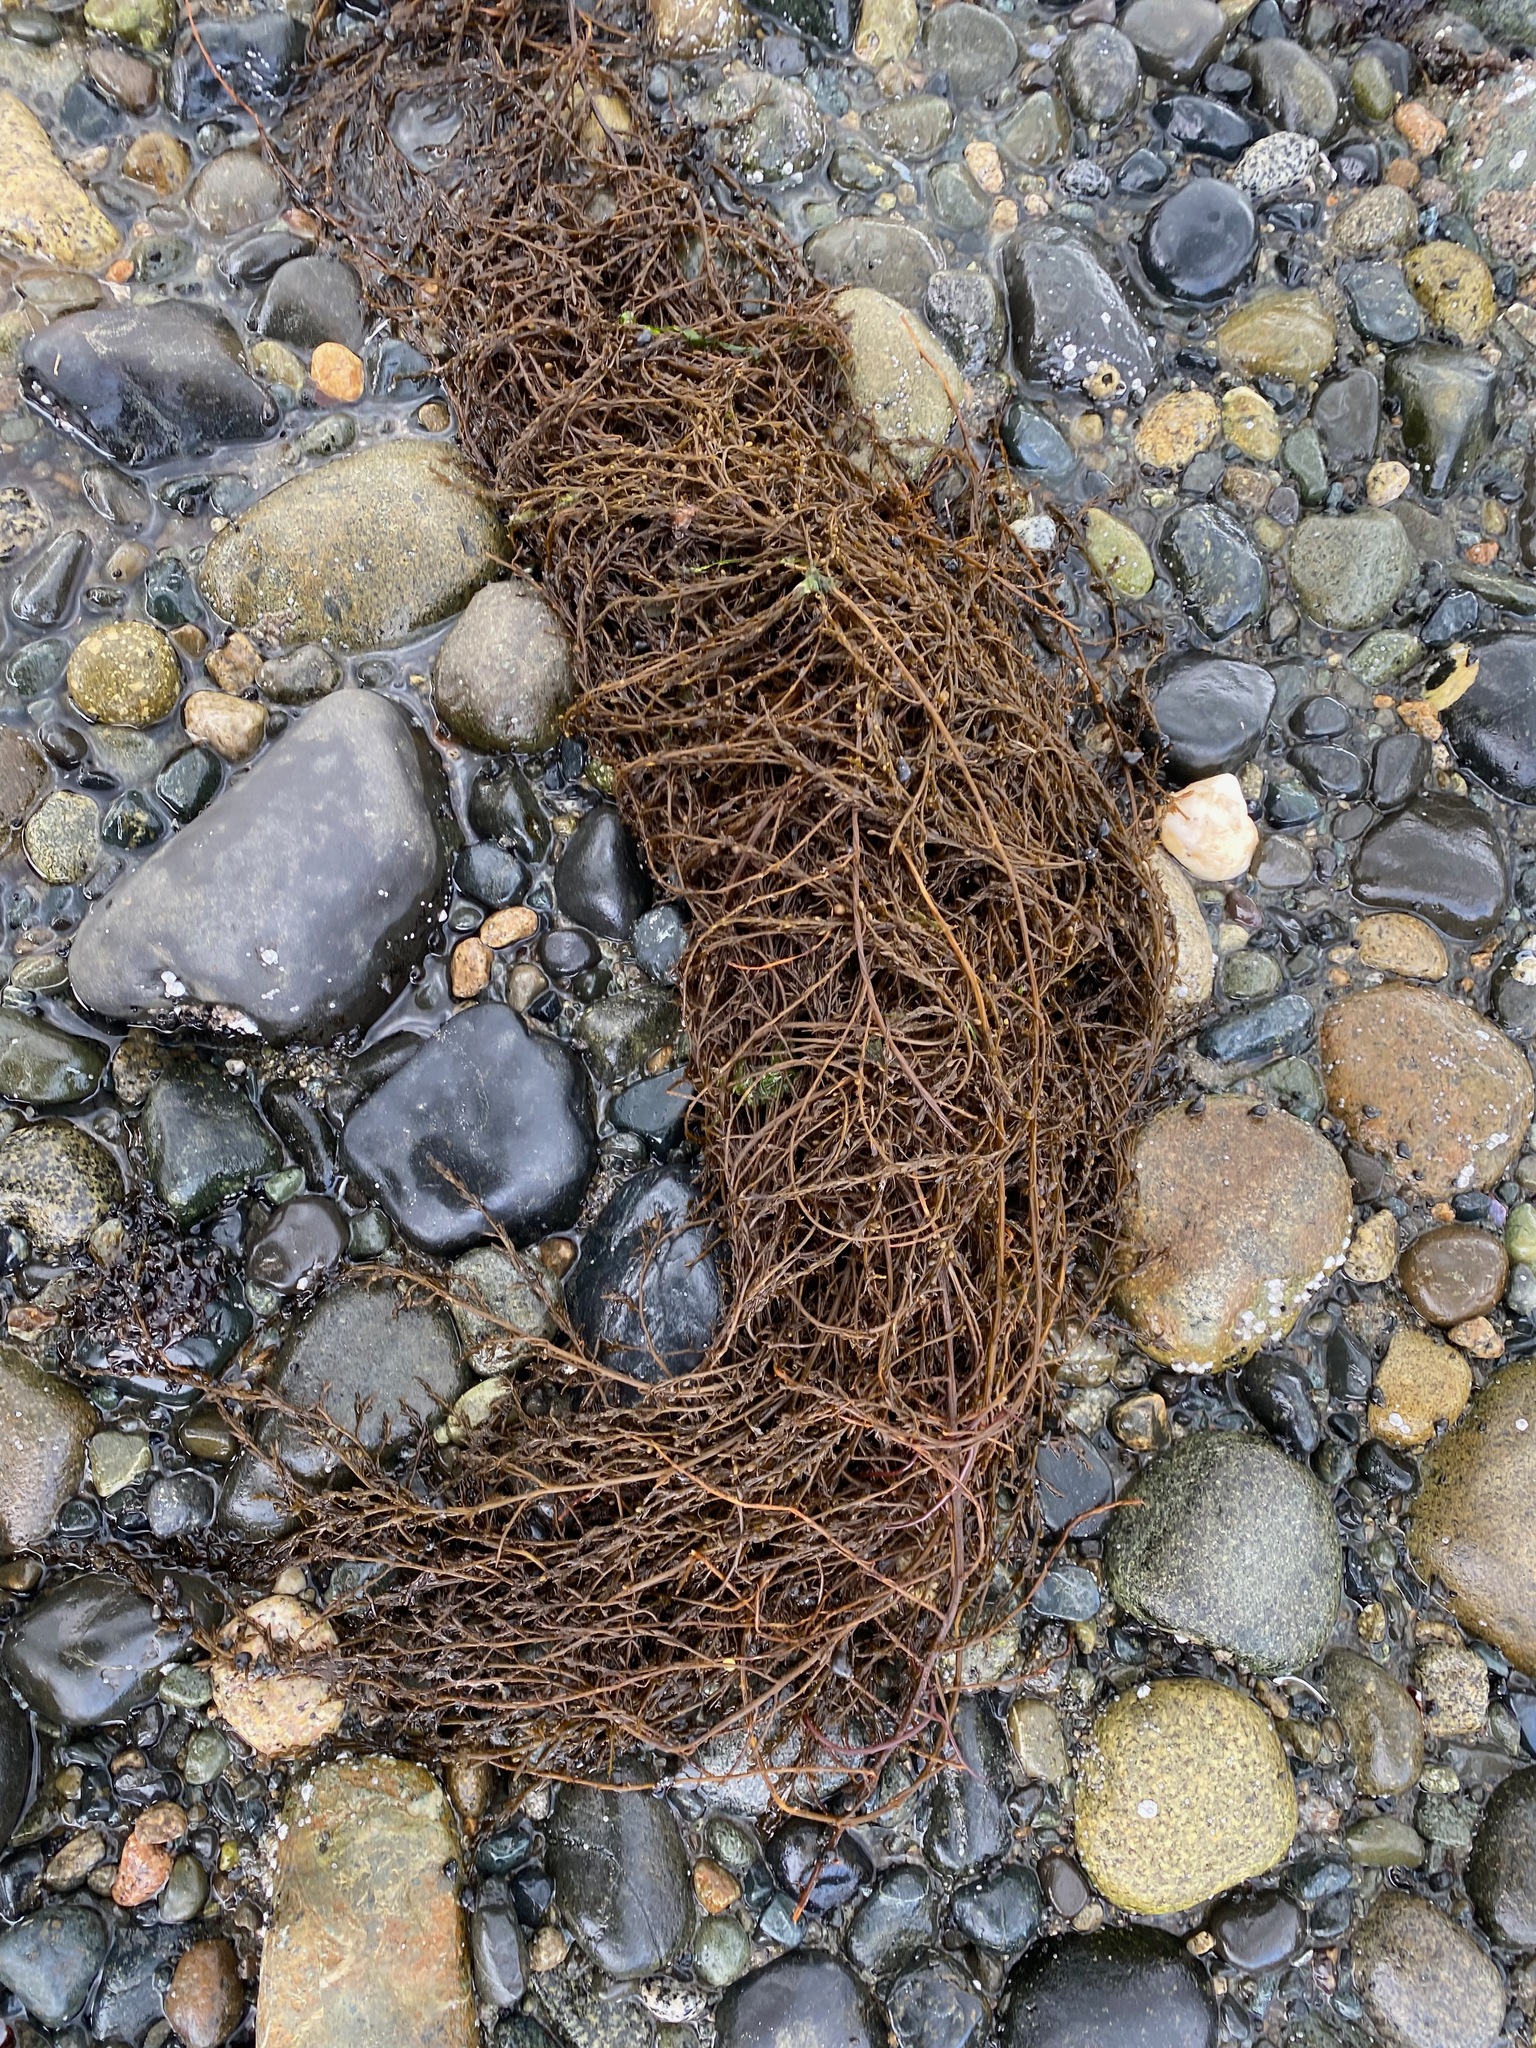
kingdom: Chromista
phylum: Ochrophyta
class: Phaeophyceae
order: Fucales
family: Sargassaceae
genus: Sargassum
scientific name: Sargassum muticum
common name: Japweed
